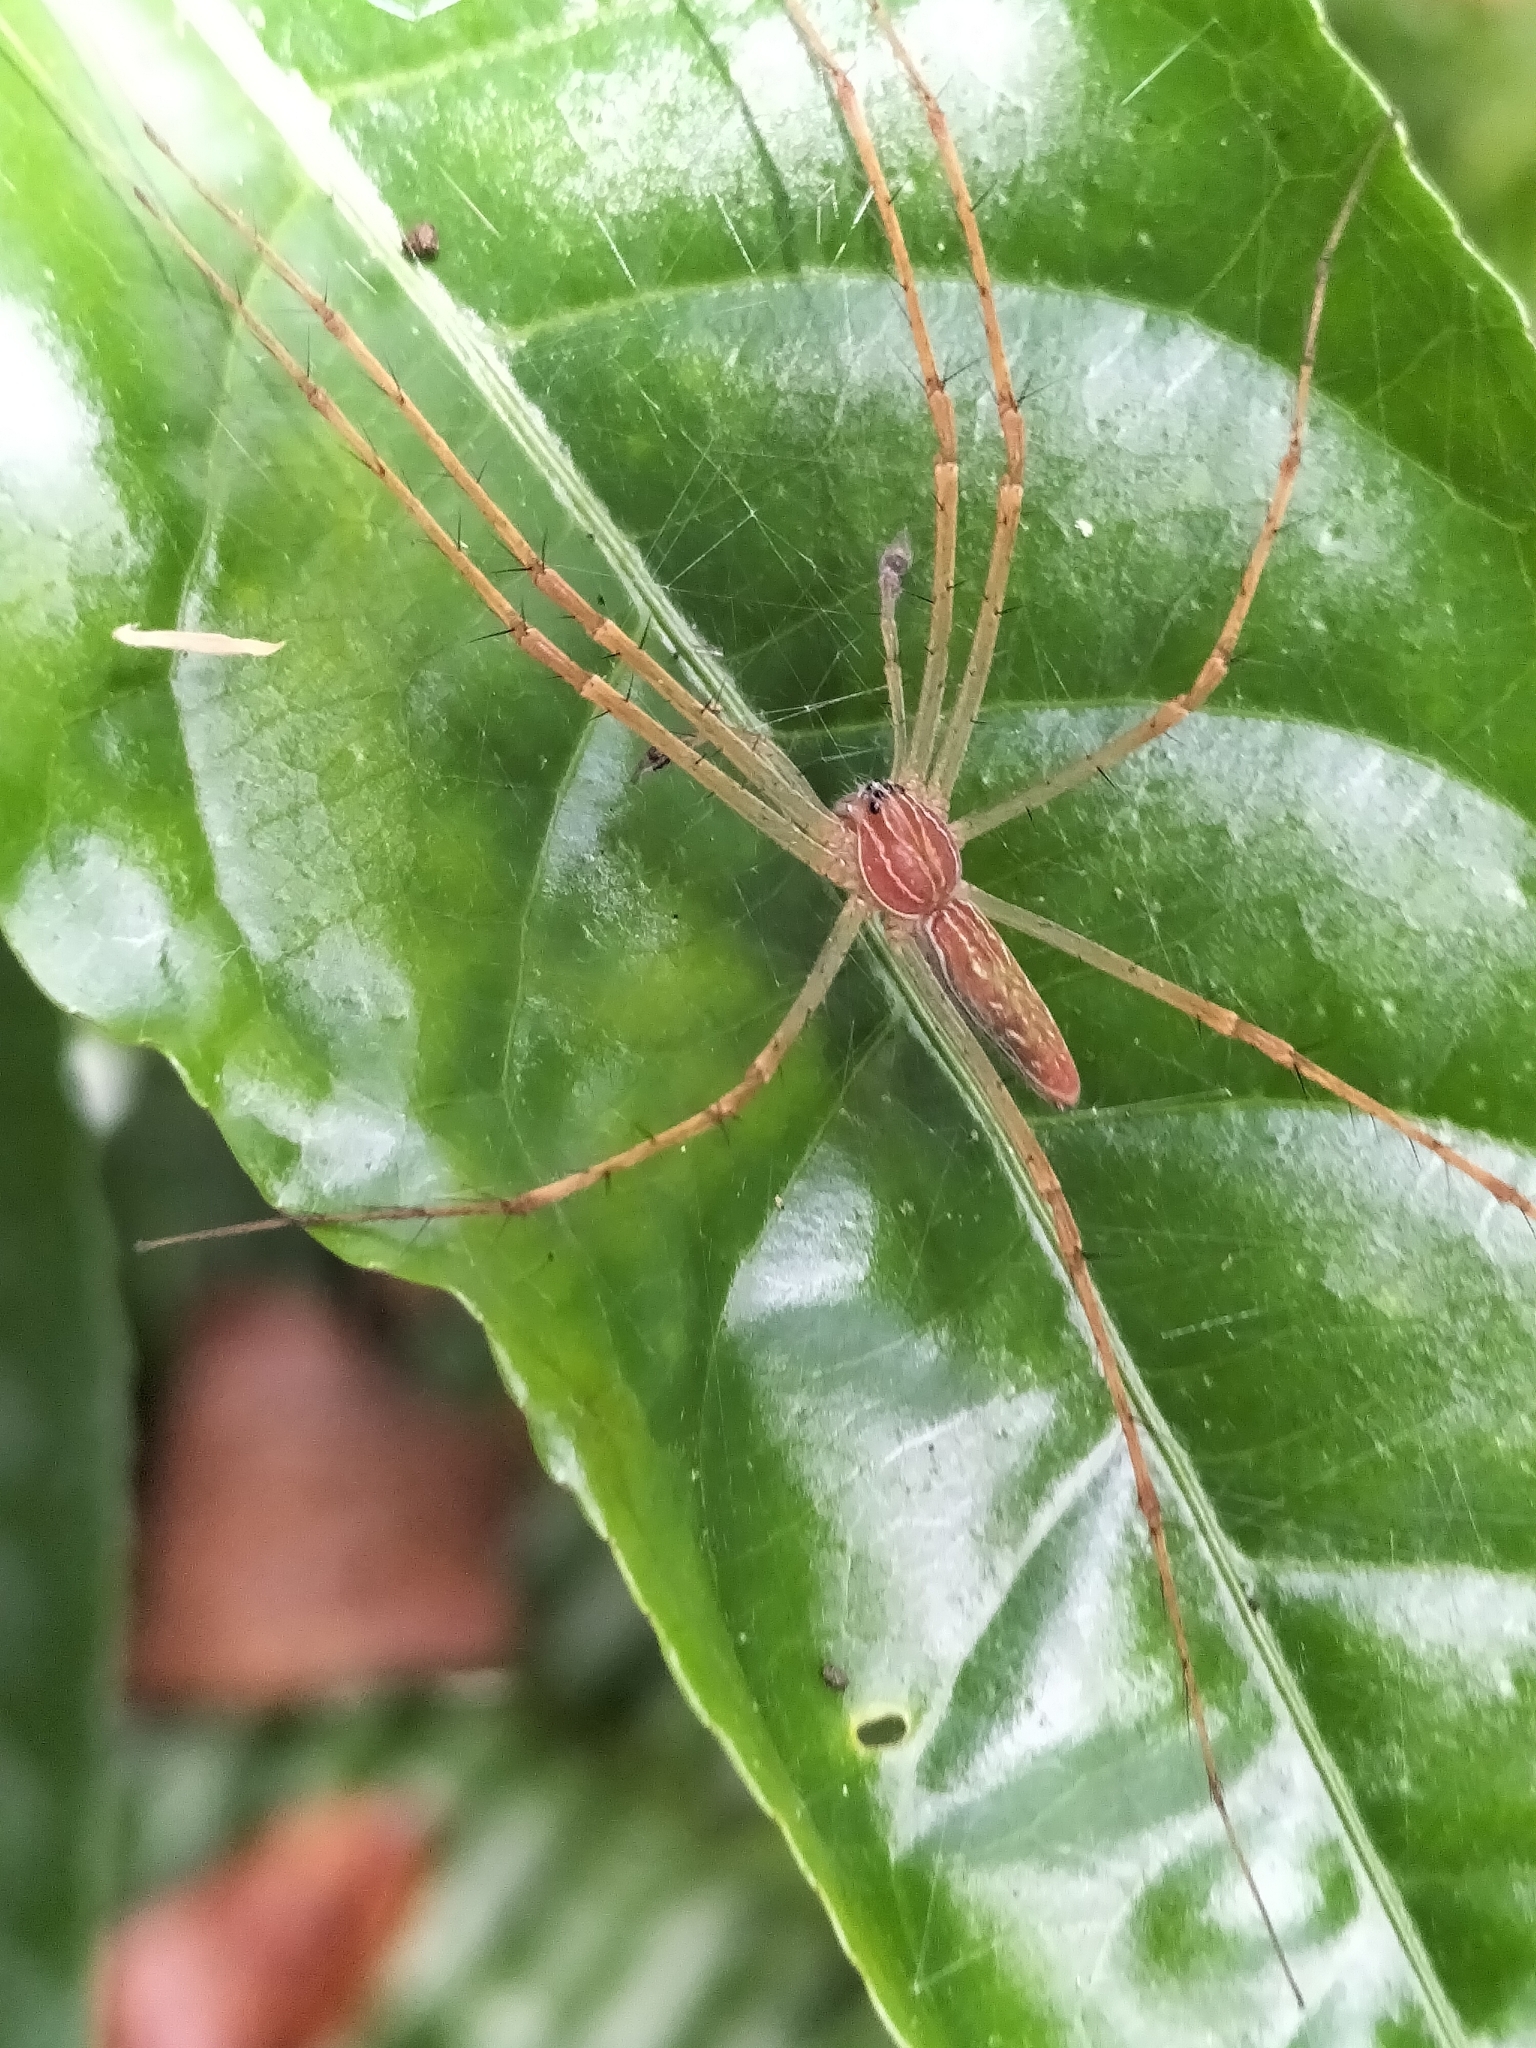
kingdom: Animalia
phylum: Arthropoda
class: Arachnida
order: Araneae
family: Pisauridae
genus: Hygropoda
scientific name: Hygropoda lineata
